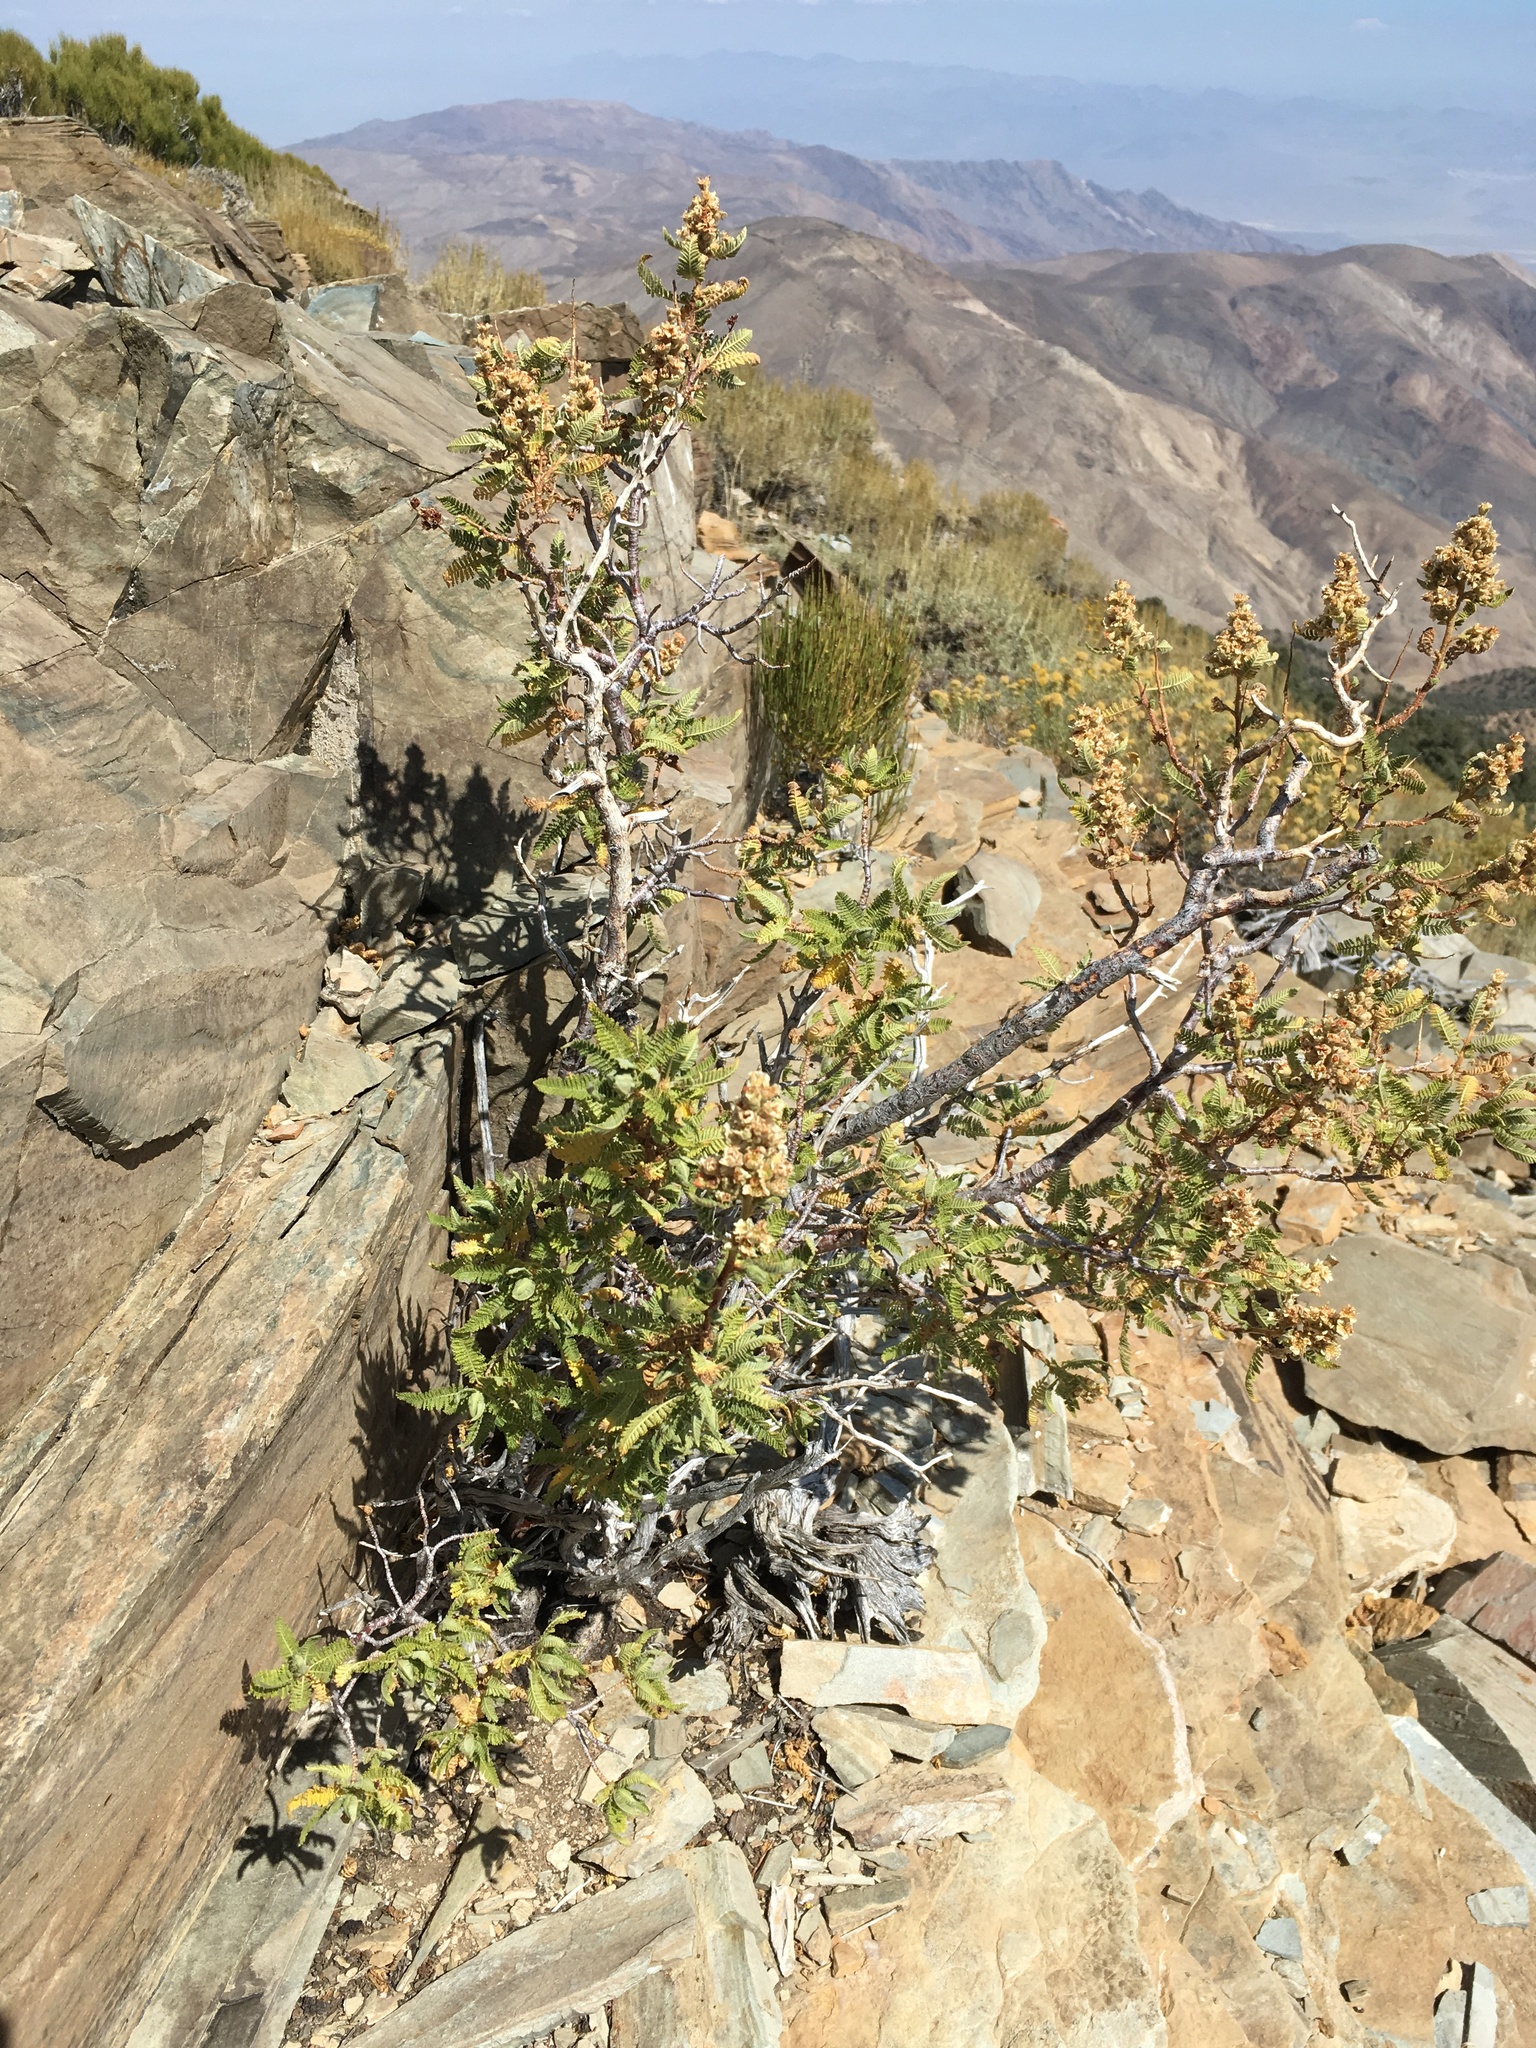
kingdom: Plantae
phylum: Tracheophyta
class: Magnoliopsida
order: Rosales
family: Rosaceae
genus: Chamaebatiaria
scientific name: Chamaebatiaria millefolium
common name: Fernbush
